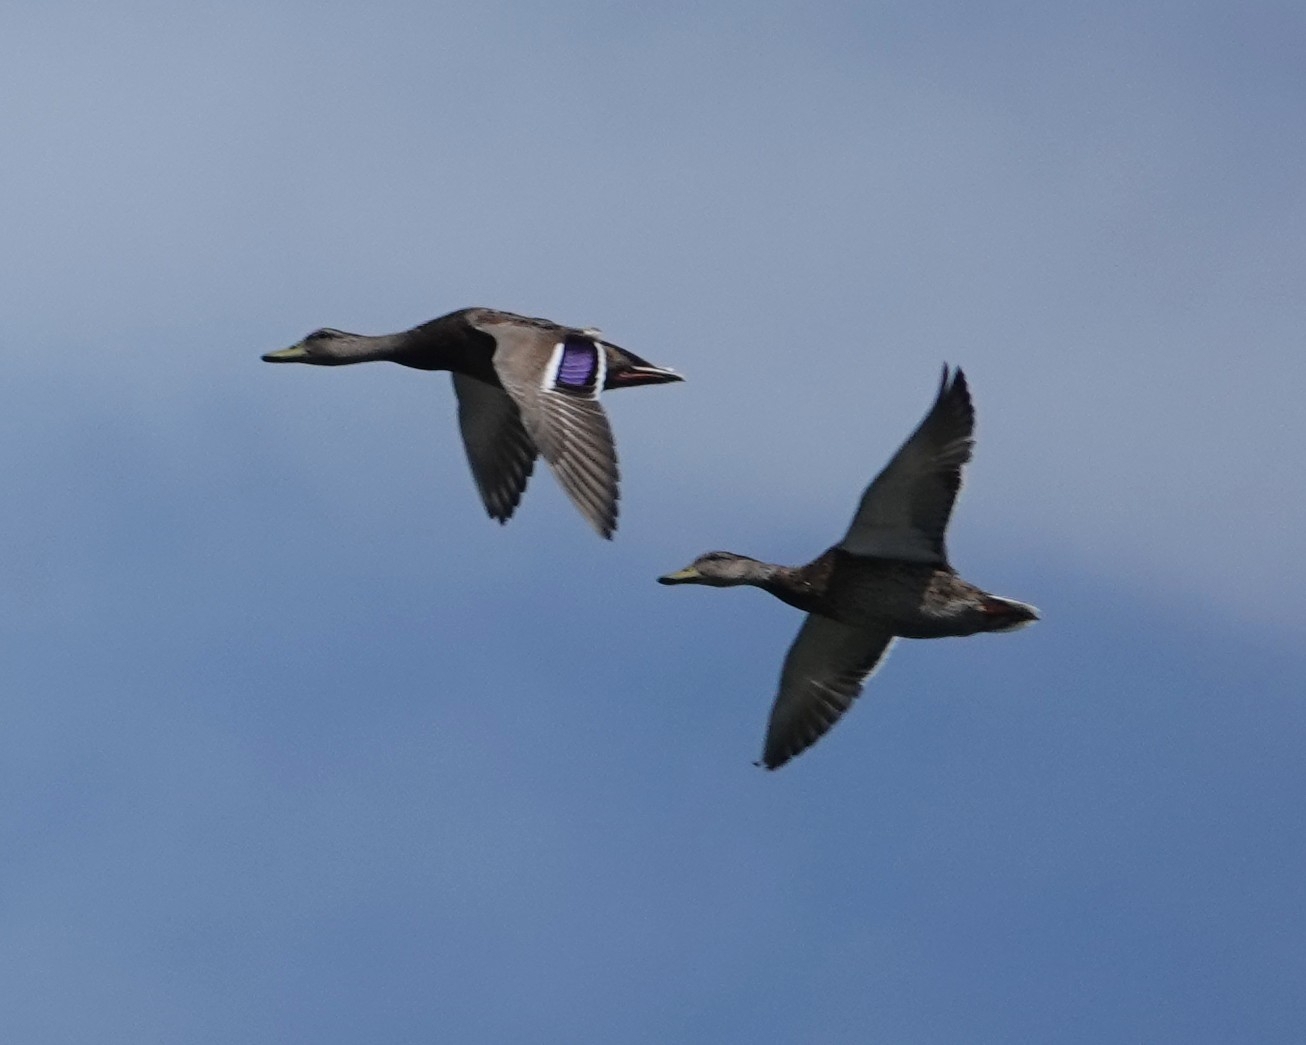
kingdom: Animalia
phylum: Chordata
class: Aves
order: Anseriformes
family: Anatidae
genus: Anas
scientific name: Anas platyrhynchos
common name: Mallard
